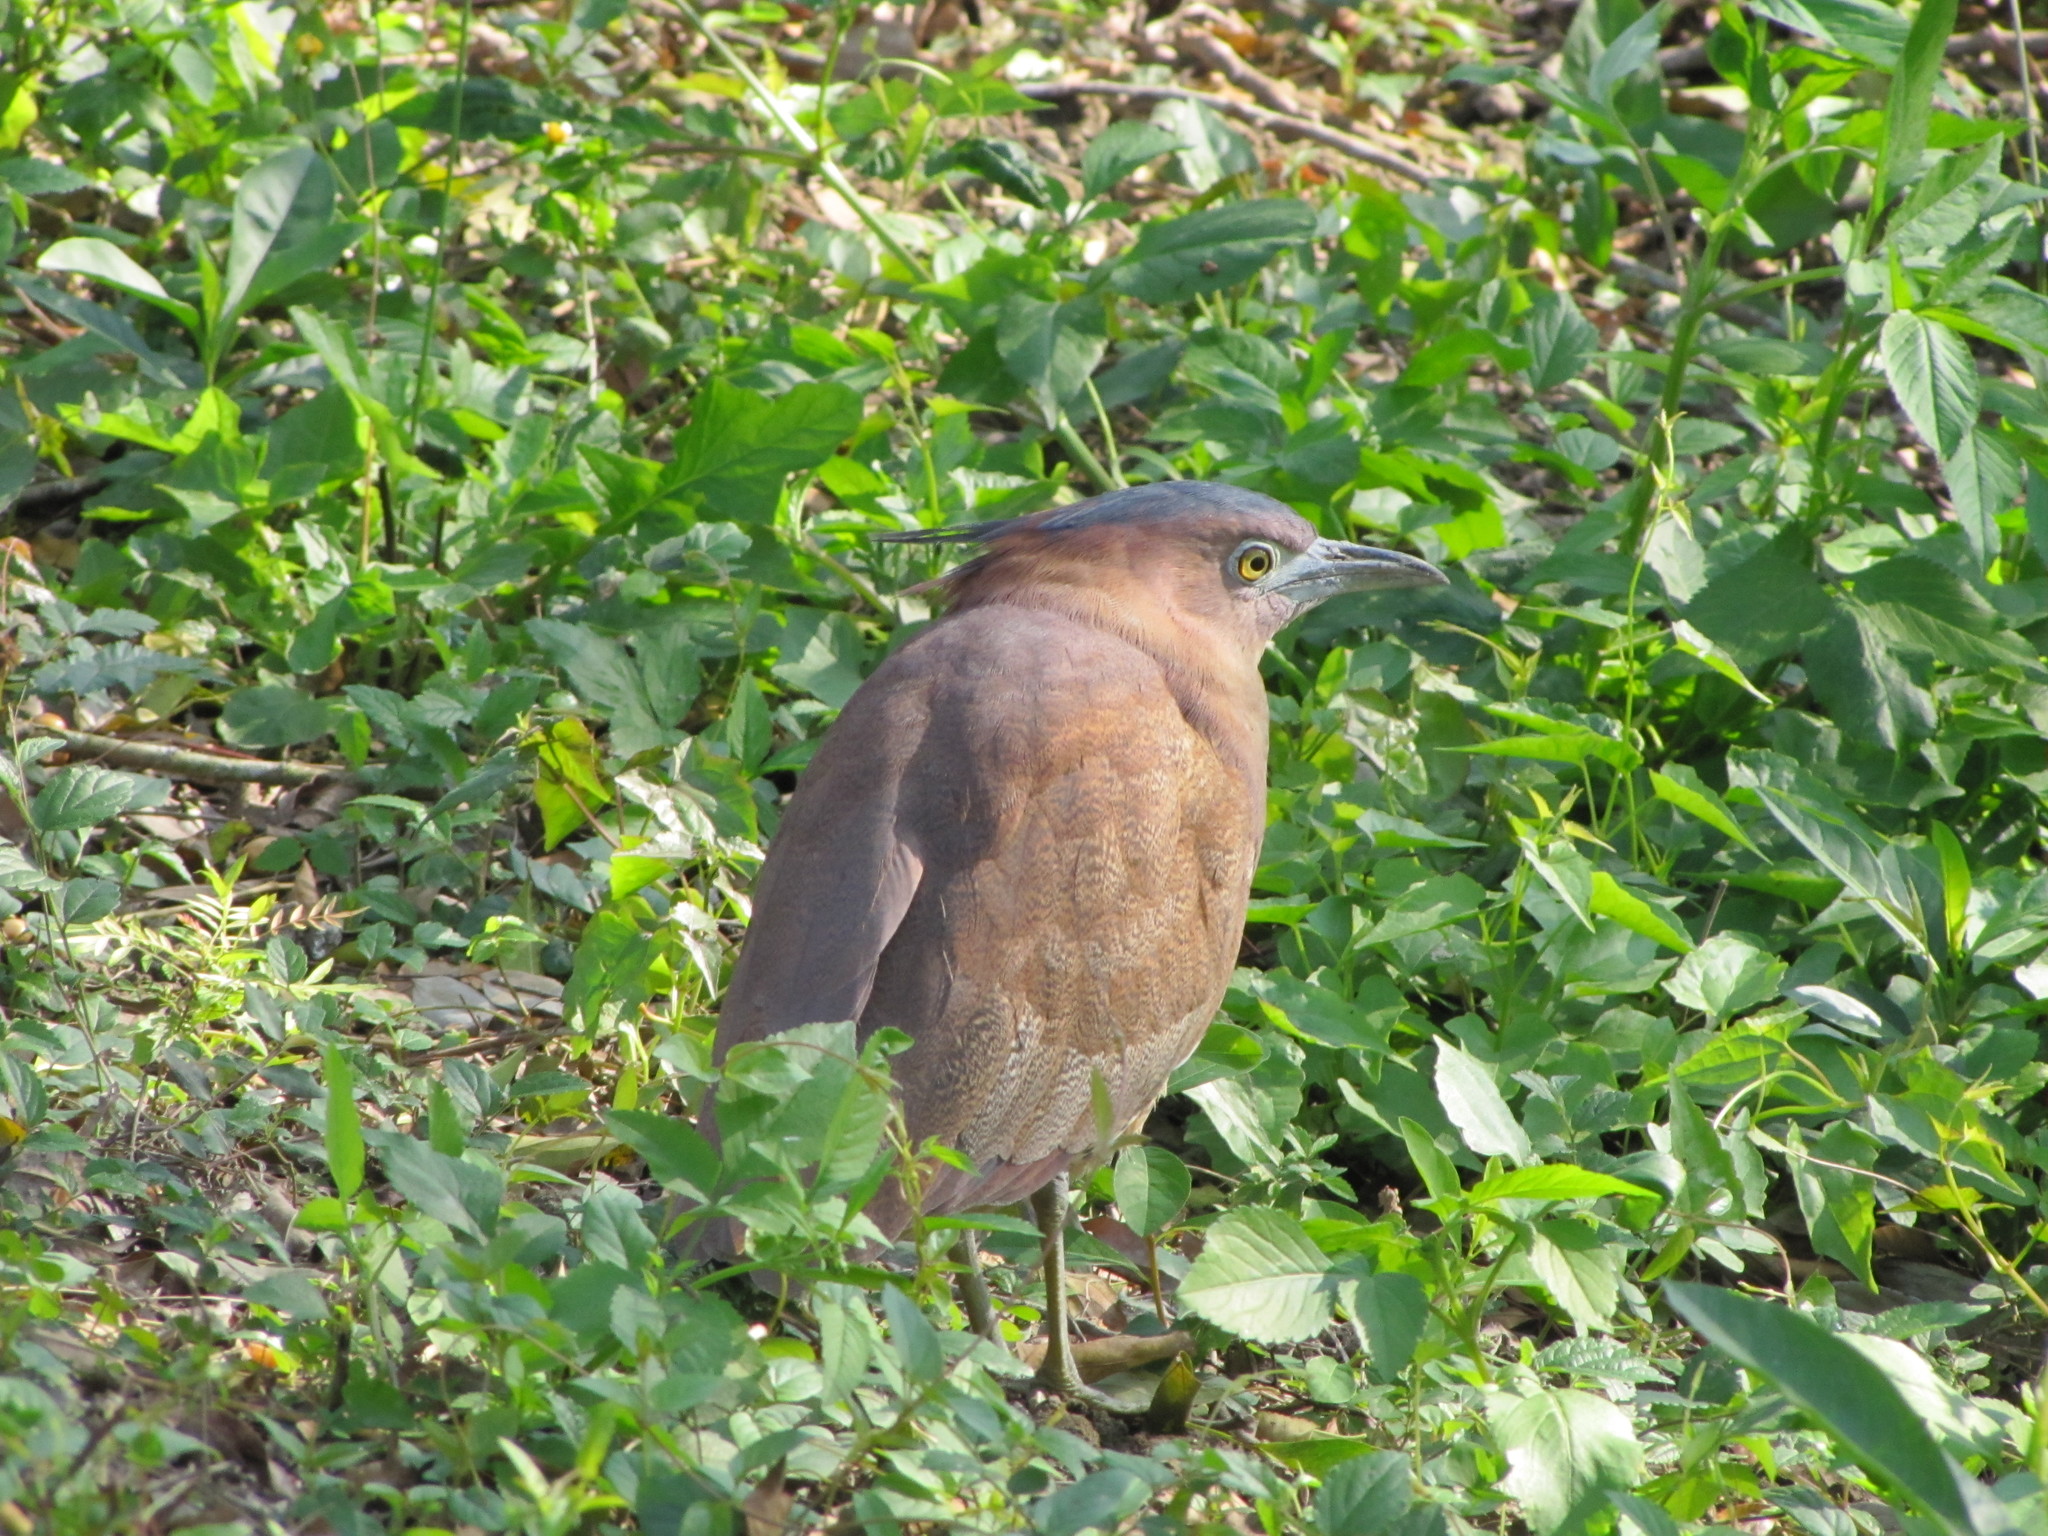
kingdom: Animalia
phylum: Chordata
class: Aves
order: Pelecaniformes
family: Ardeidae
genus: Gorsachius
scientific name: Gorsachius melanolophus
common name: Malayan night heron
